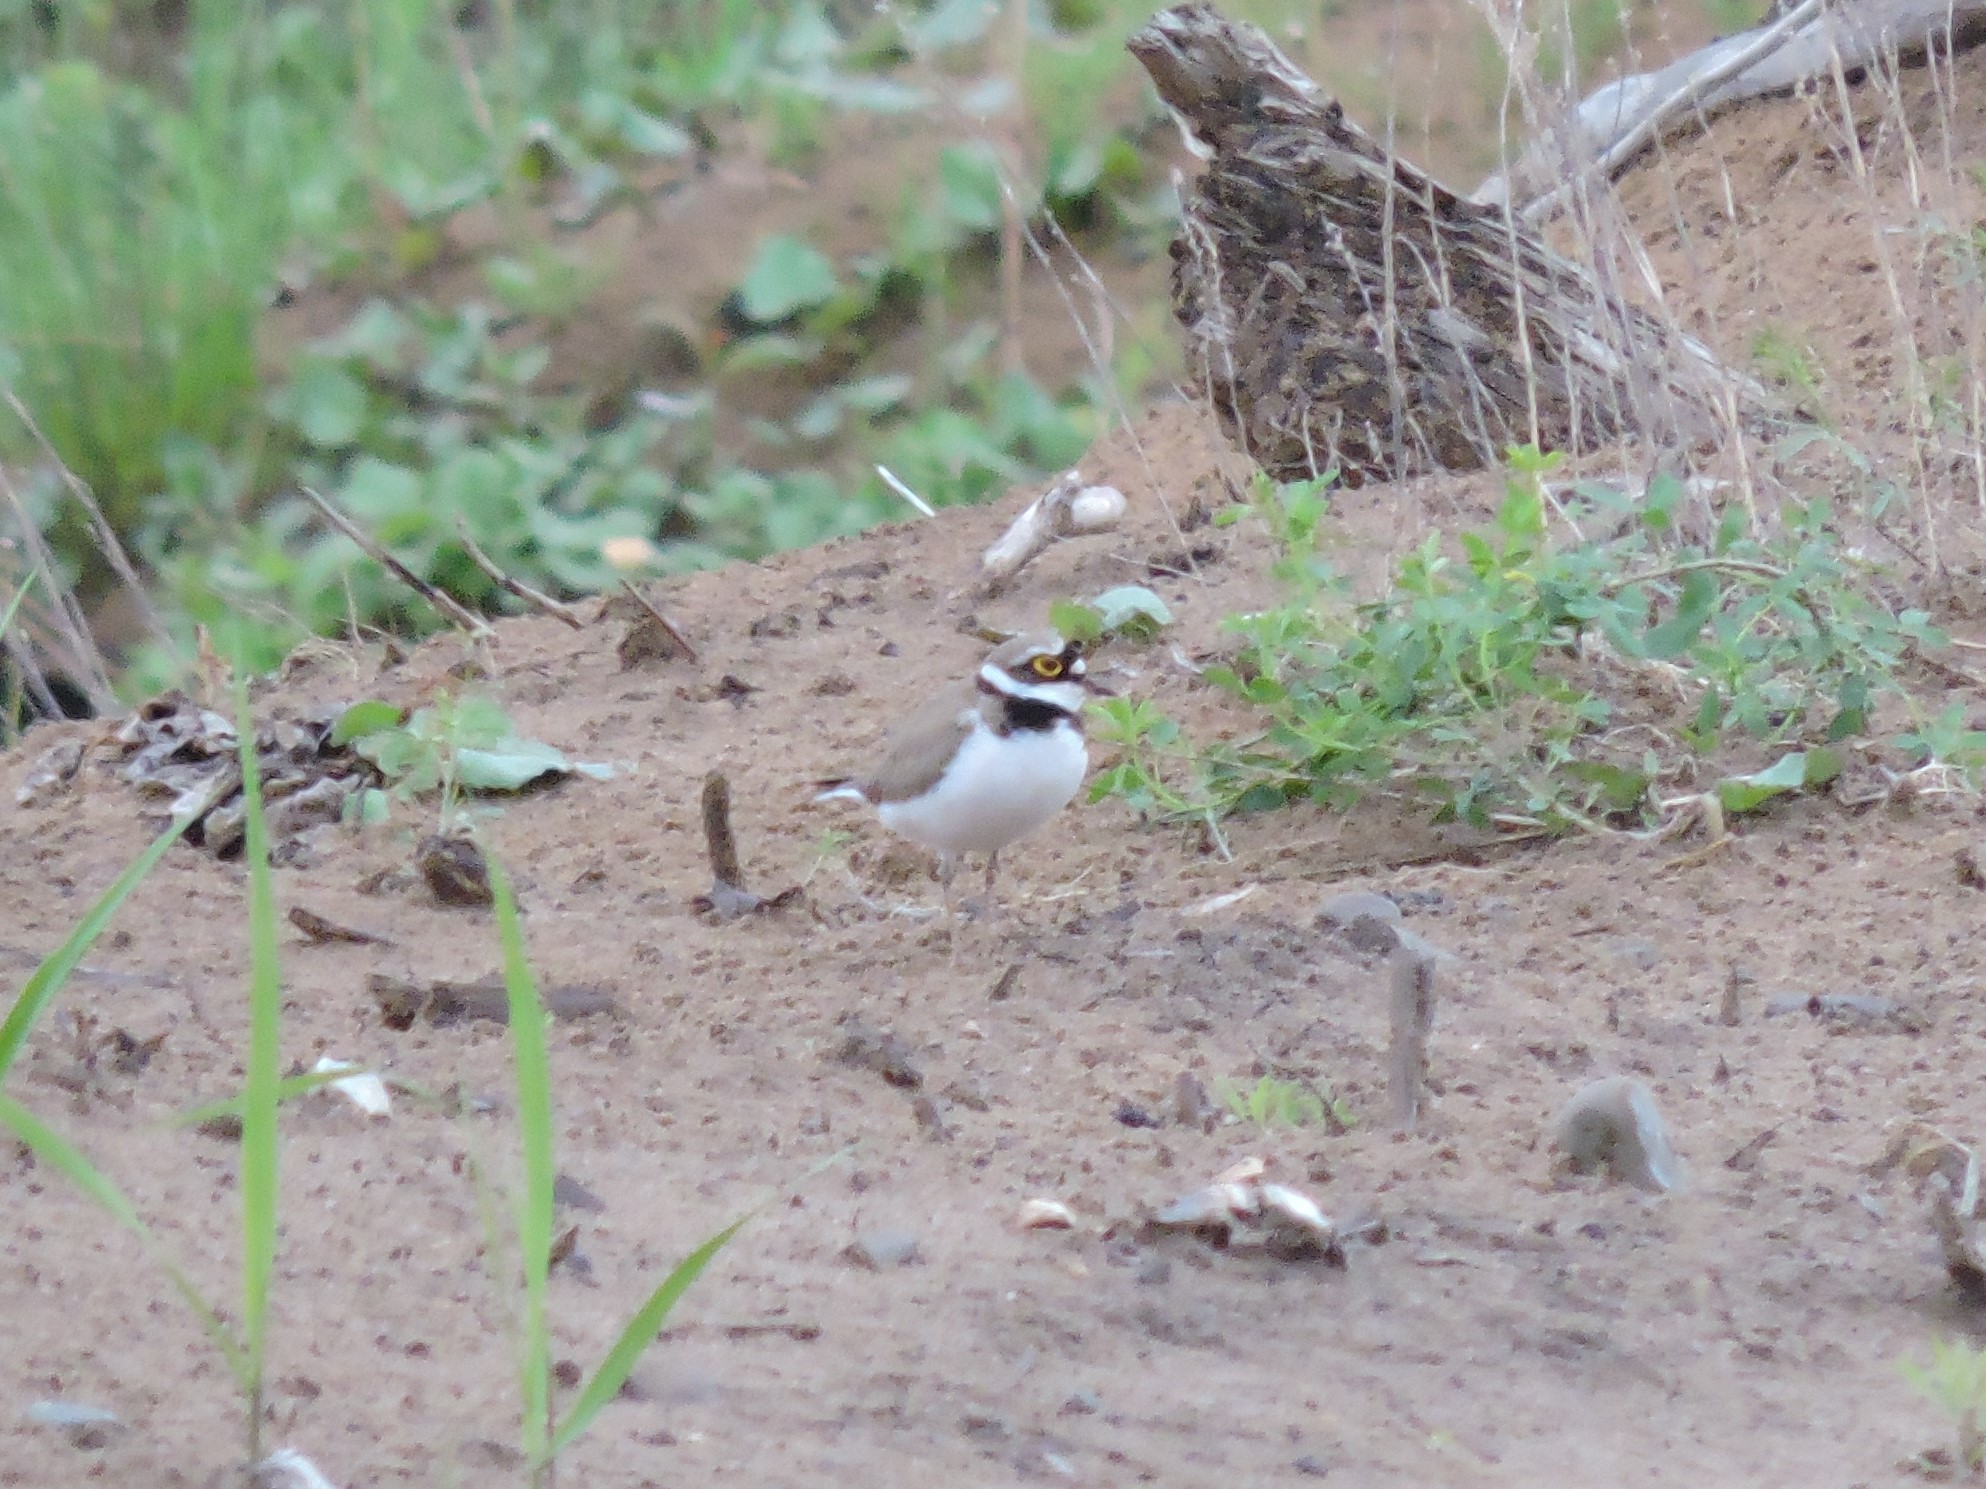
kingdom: Animalia
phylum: Chordata
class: Aves
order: Charadriiformes
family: Charadriidae
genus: Charadrius
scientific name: Charadrius dubius
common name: Little ringed plover
